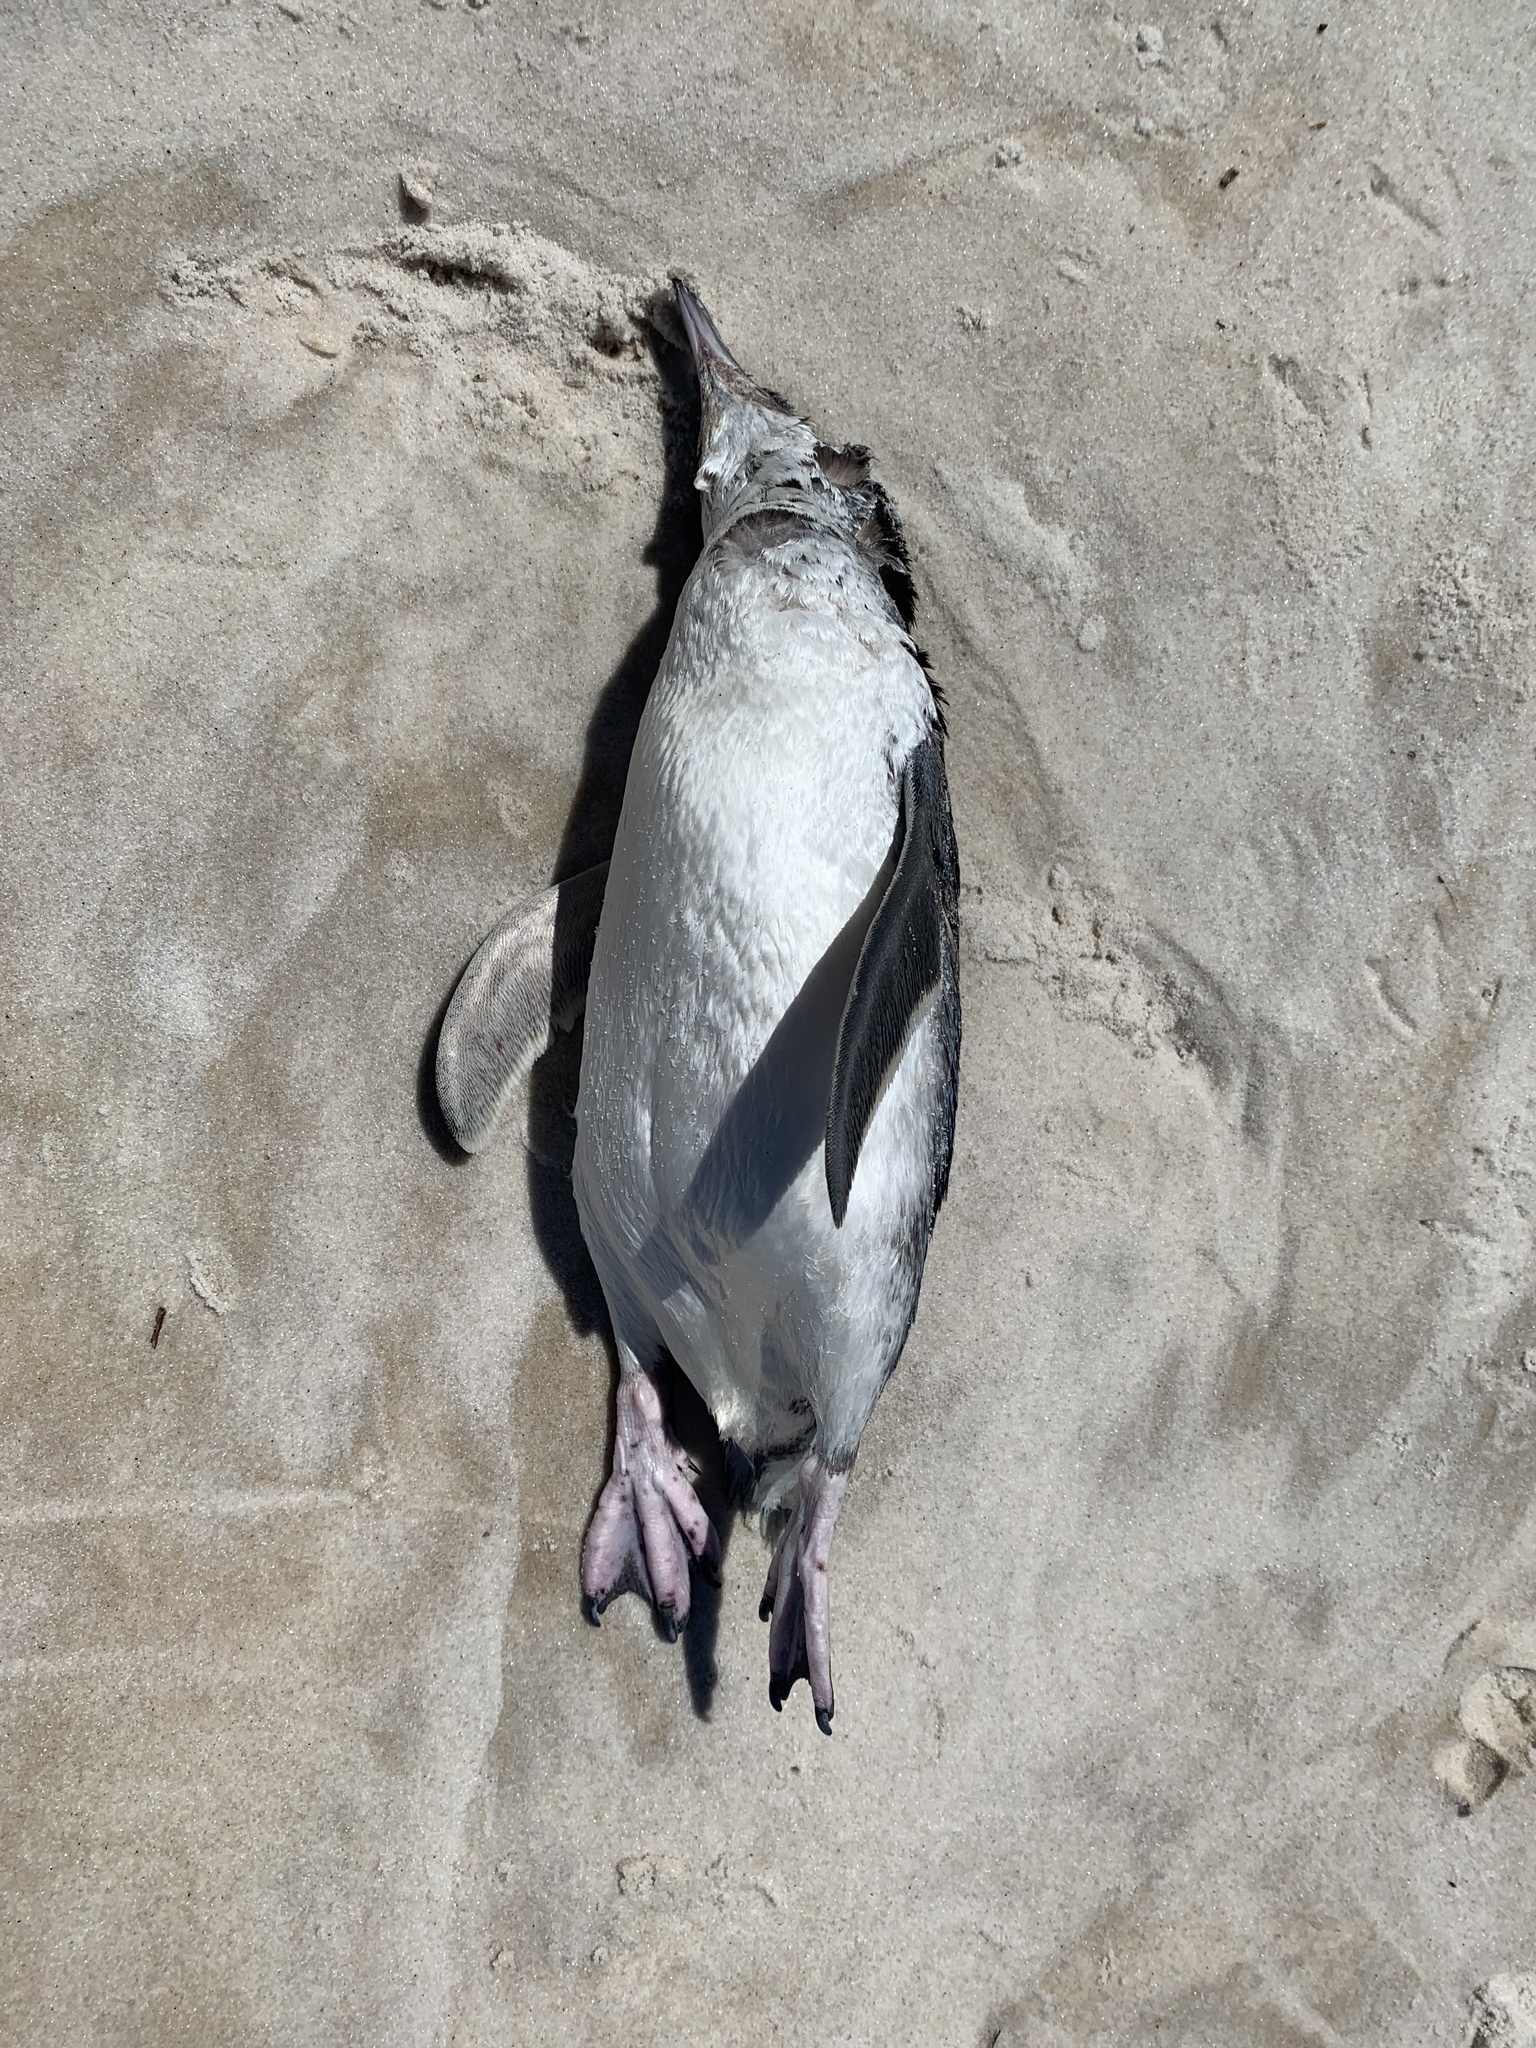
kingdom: Animalia
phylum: Chordata
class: Aves
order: Sphenisciformes
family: Spheniscidae
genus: Eudyptula
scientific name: Eudyptula minor
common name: Little penguin
